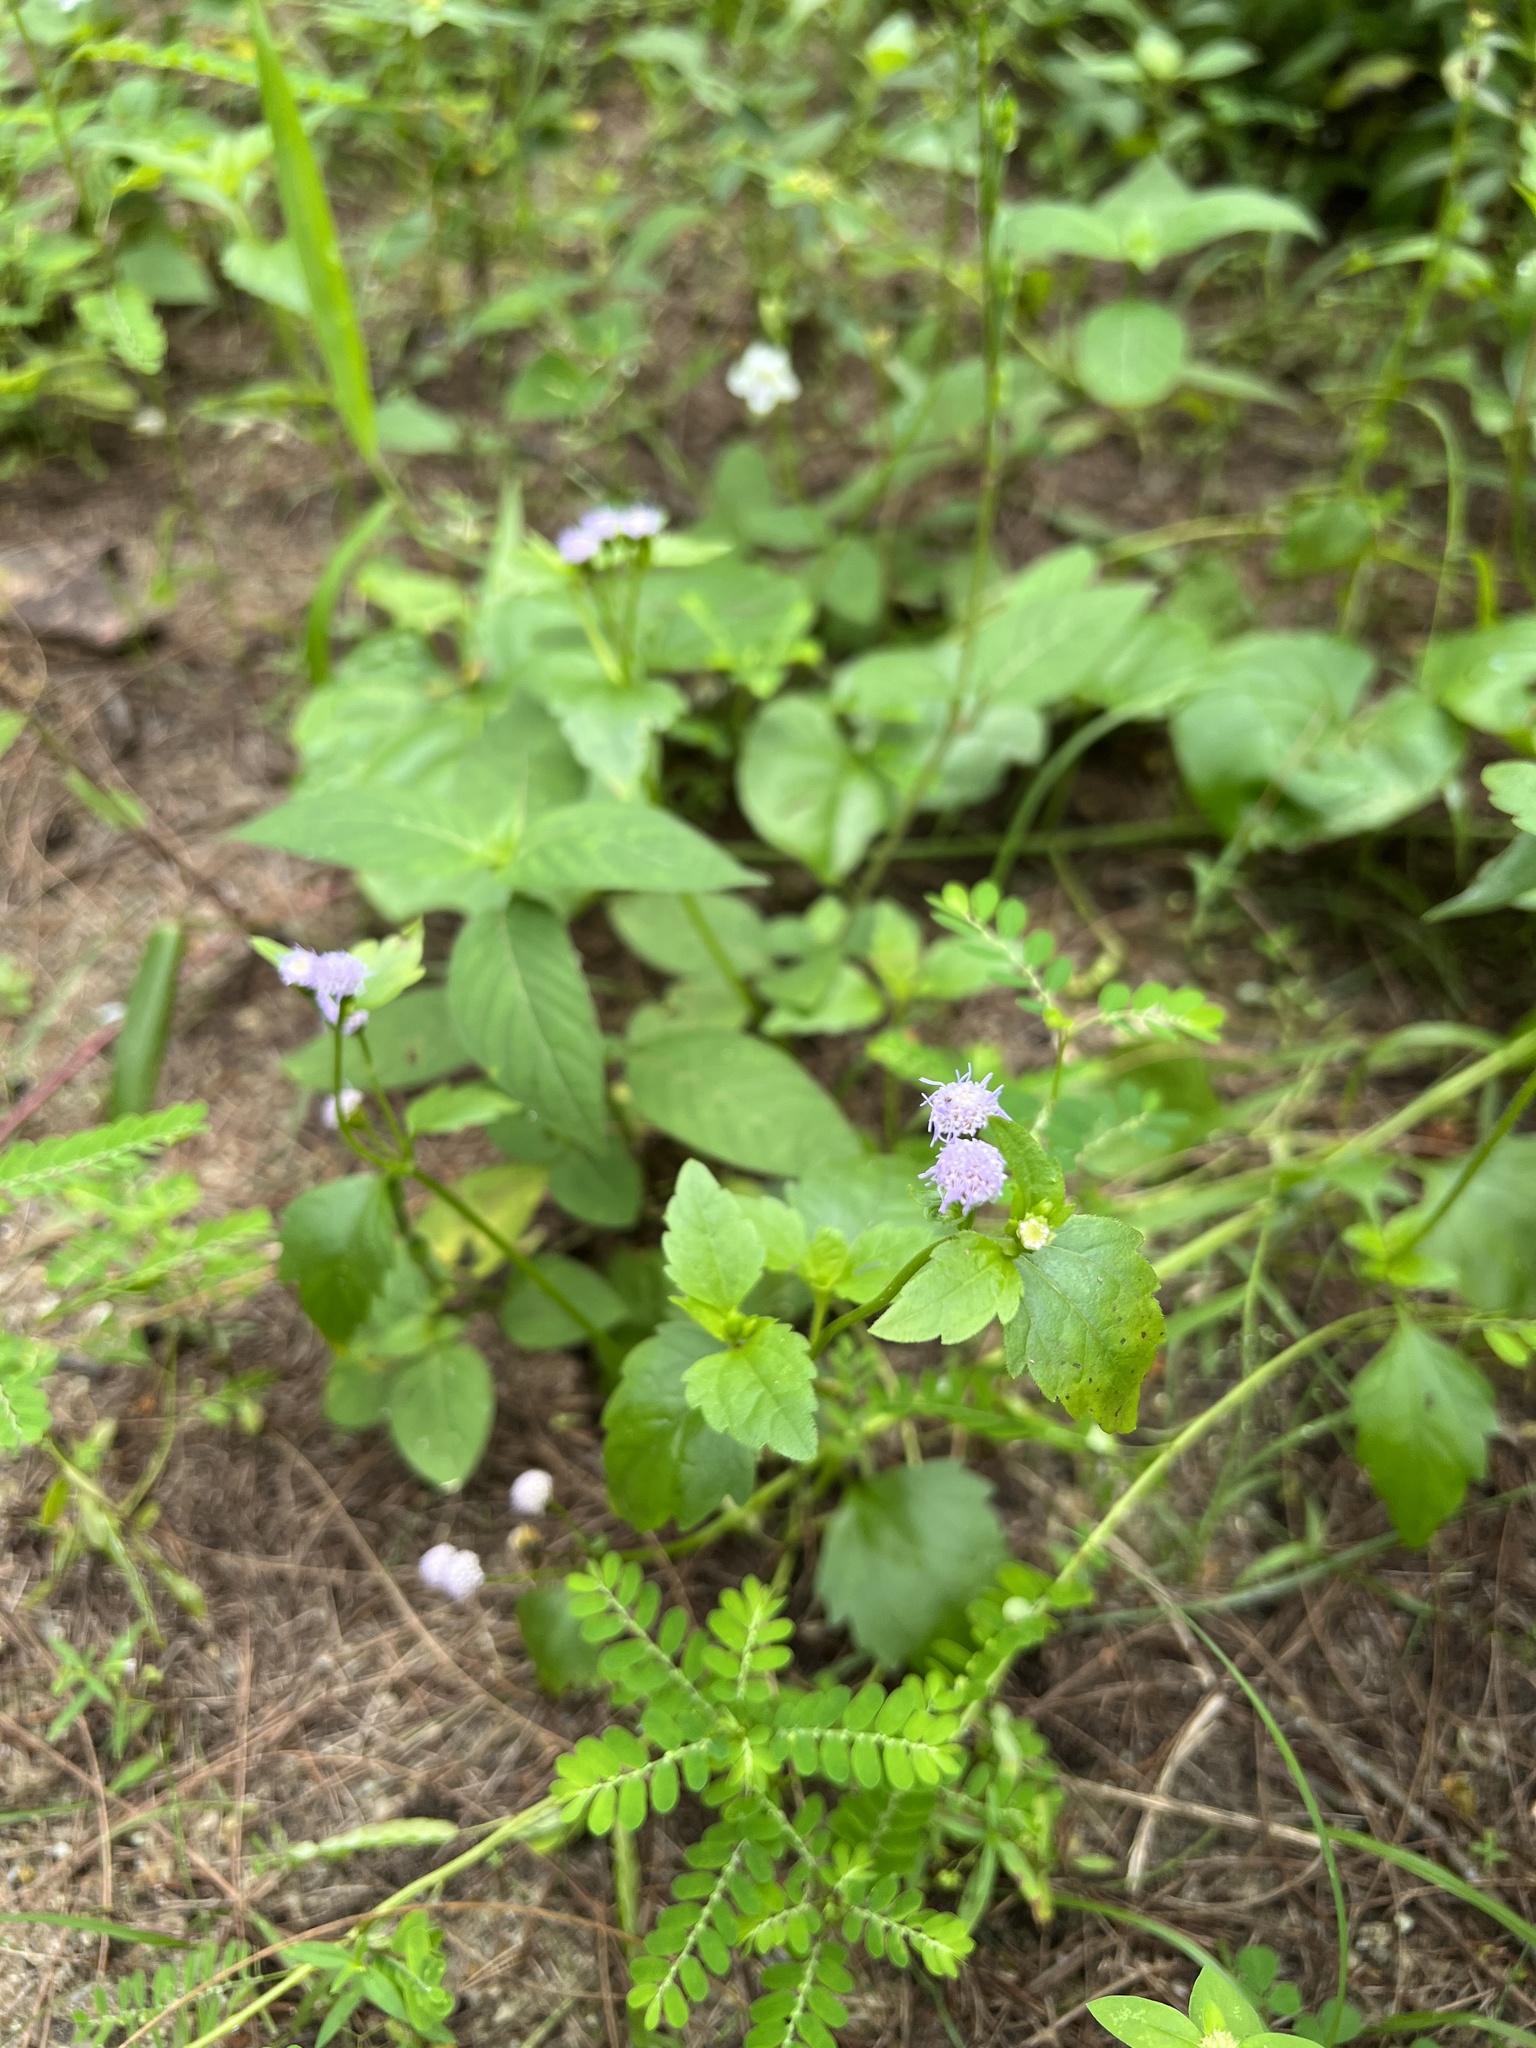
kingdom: Plantae
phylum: Tracheophyta
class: Magnoliopsida
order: Asterales
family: Asteraceae
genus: Praxelis
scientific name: Praxelis clematidea
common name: Praxelis
